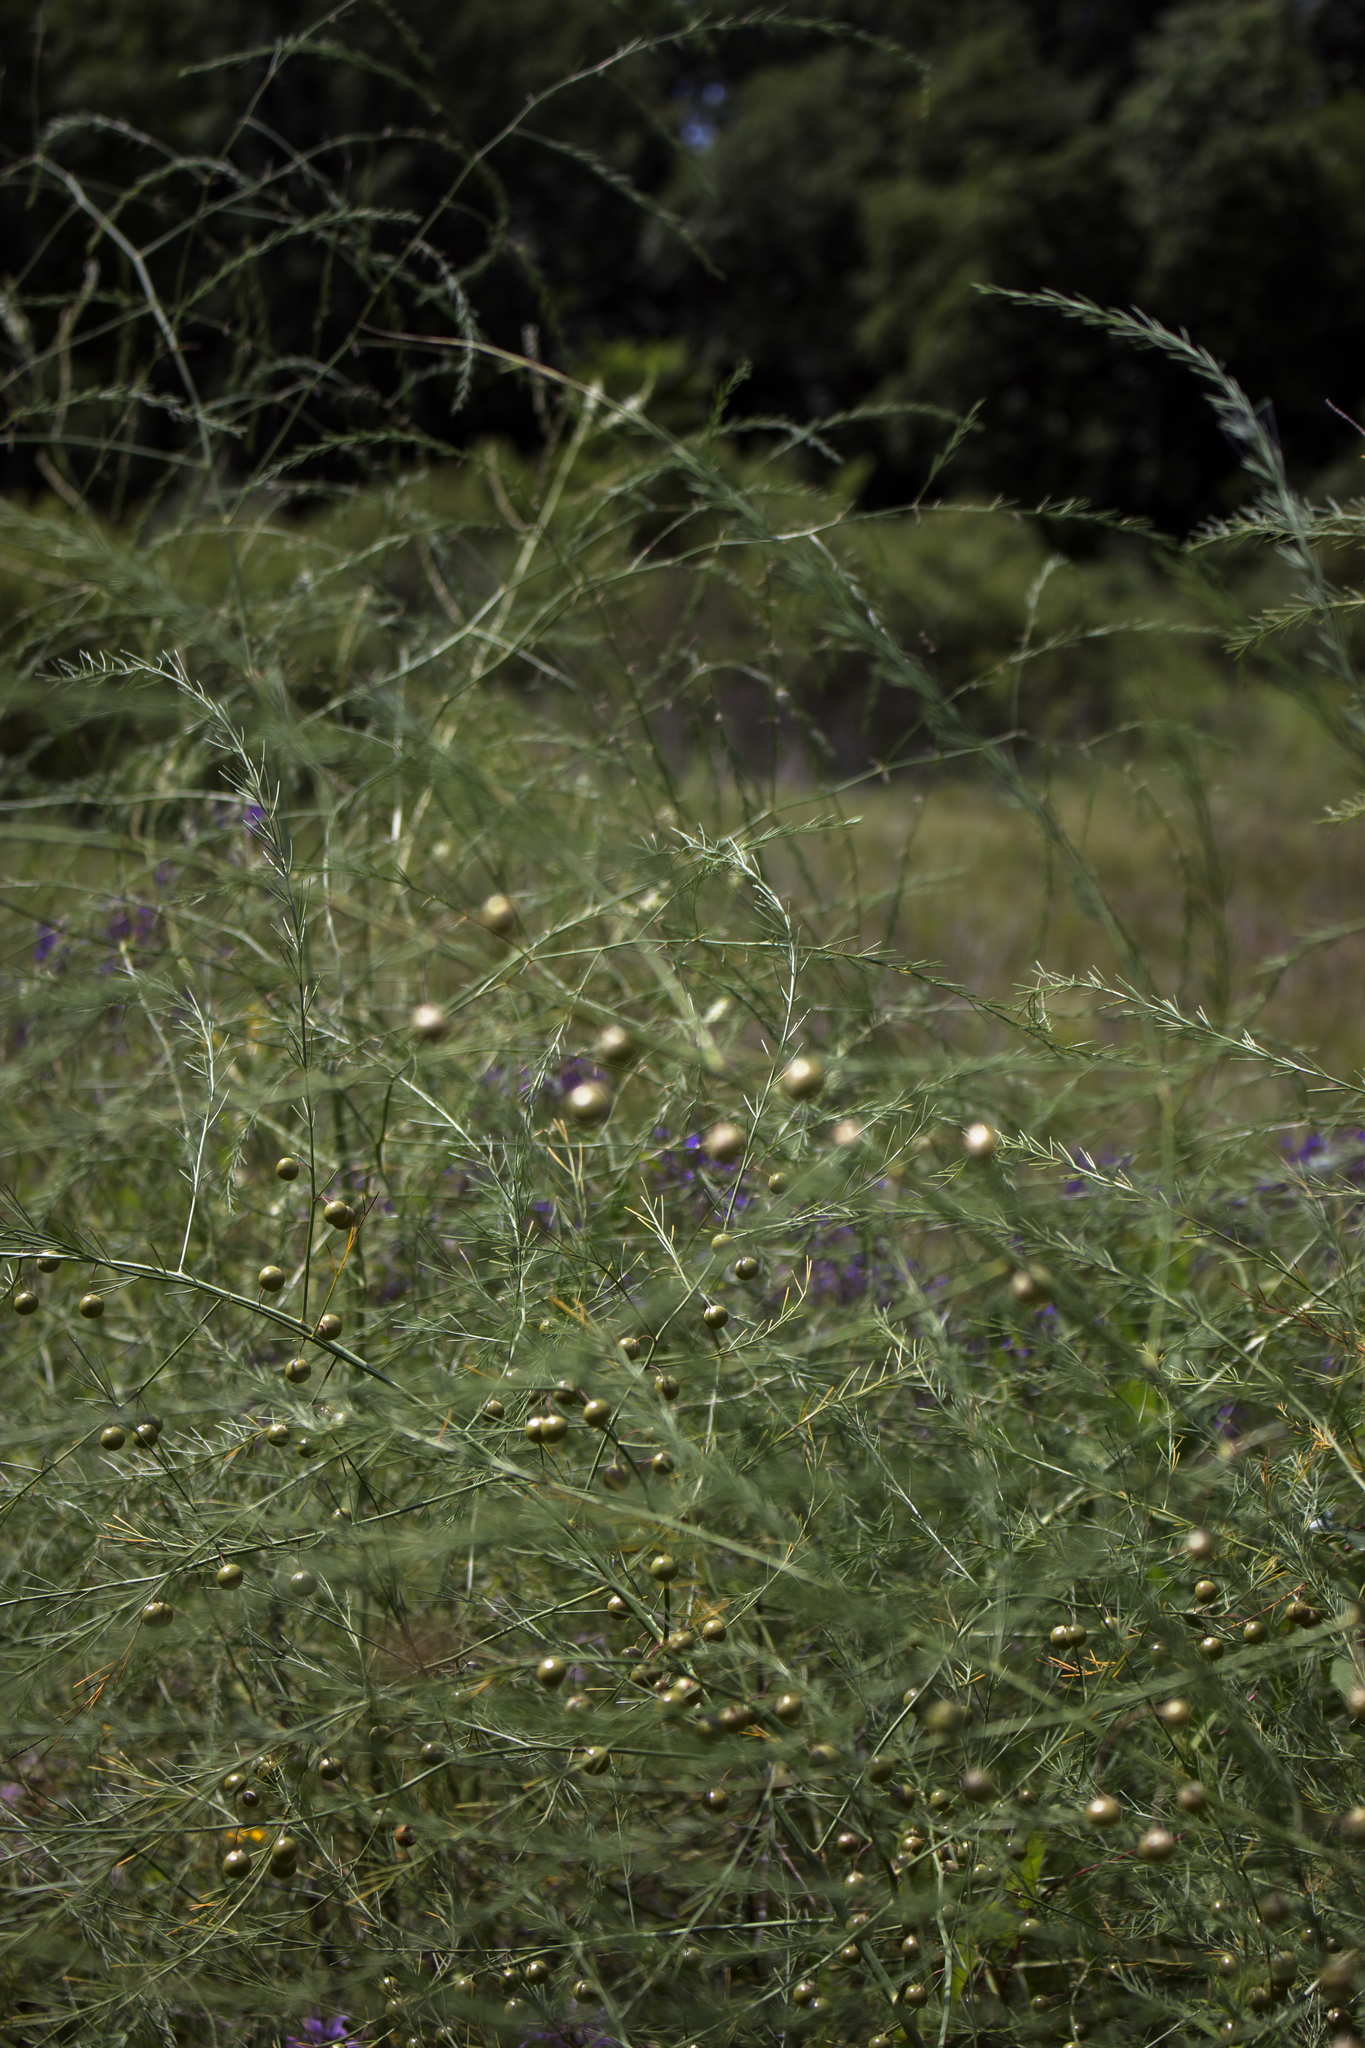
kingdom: Plantae
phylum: Tracheophyta
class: Liliopsida
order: Asparagales
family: Asparagaceae
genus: Asparagus
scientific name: Asparagus officinalis
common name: Garden asparagus
